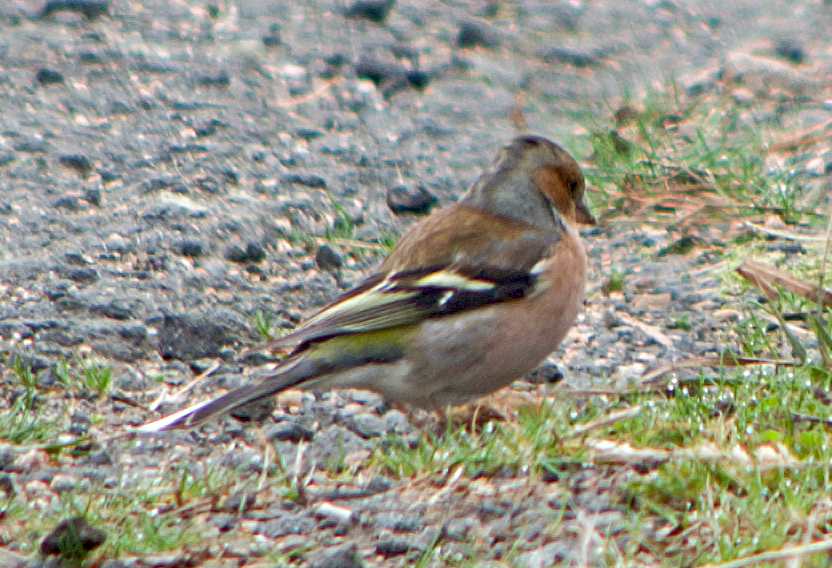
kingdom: Animalia
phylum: Chordata
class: Aves
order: Passeriformes
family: Fringillidae
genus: Fringilla
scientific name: Fringilla coelebs
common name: Common chaffinch
